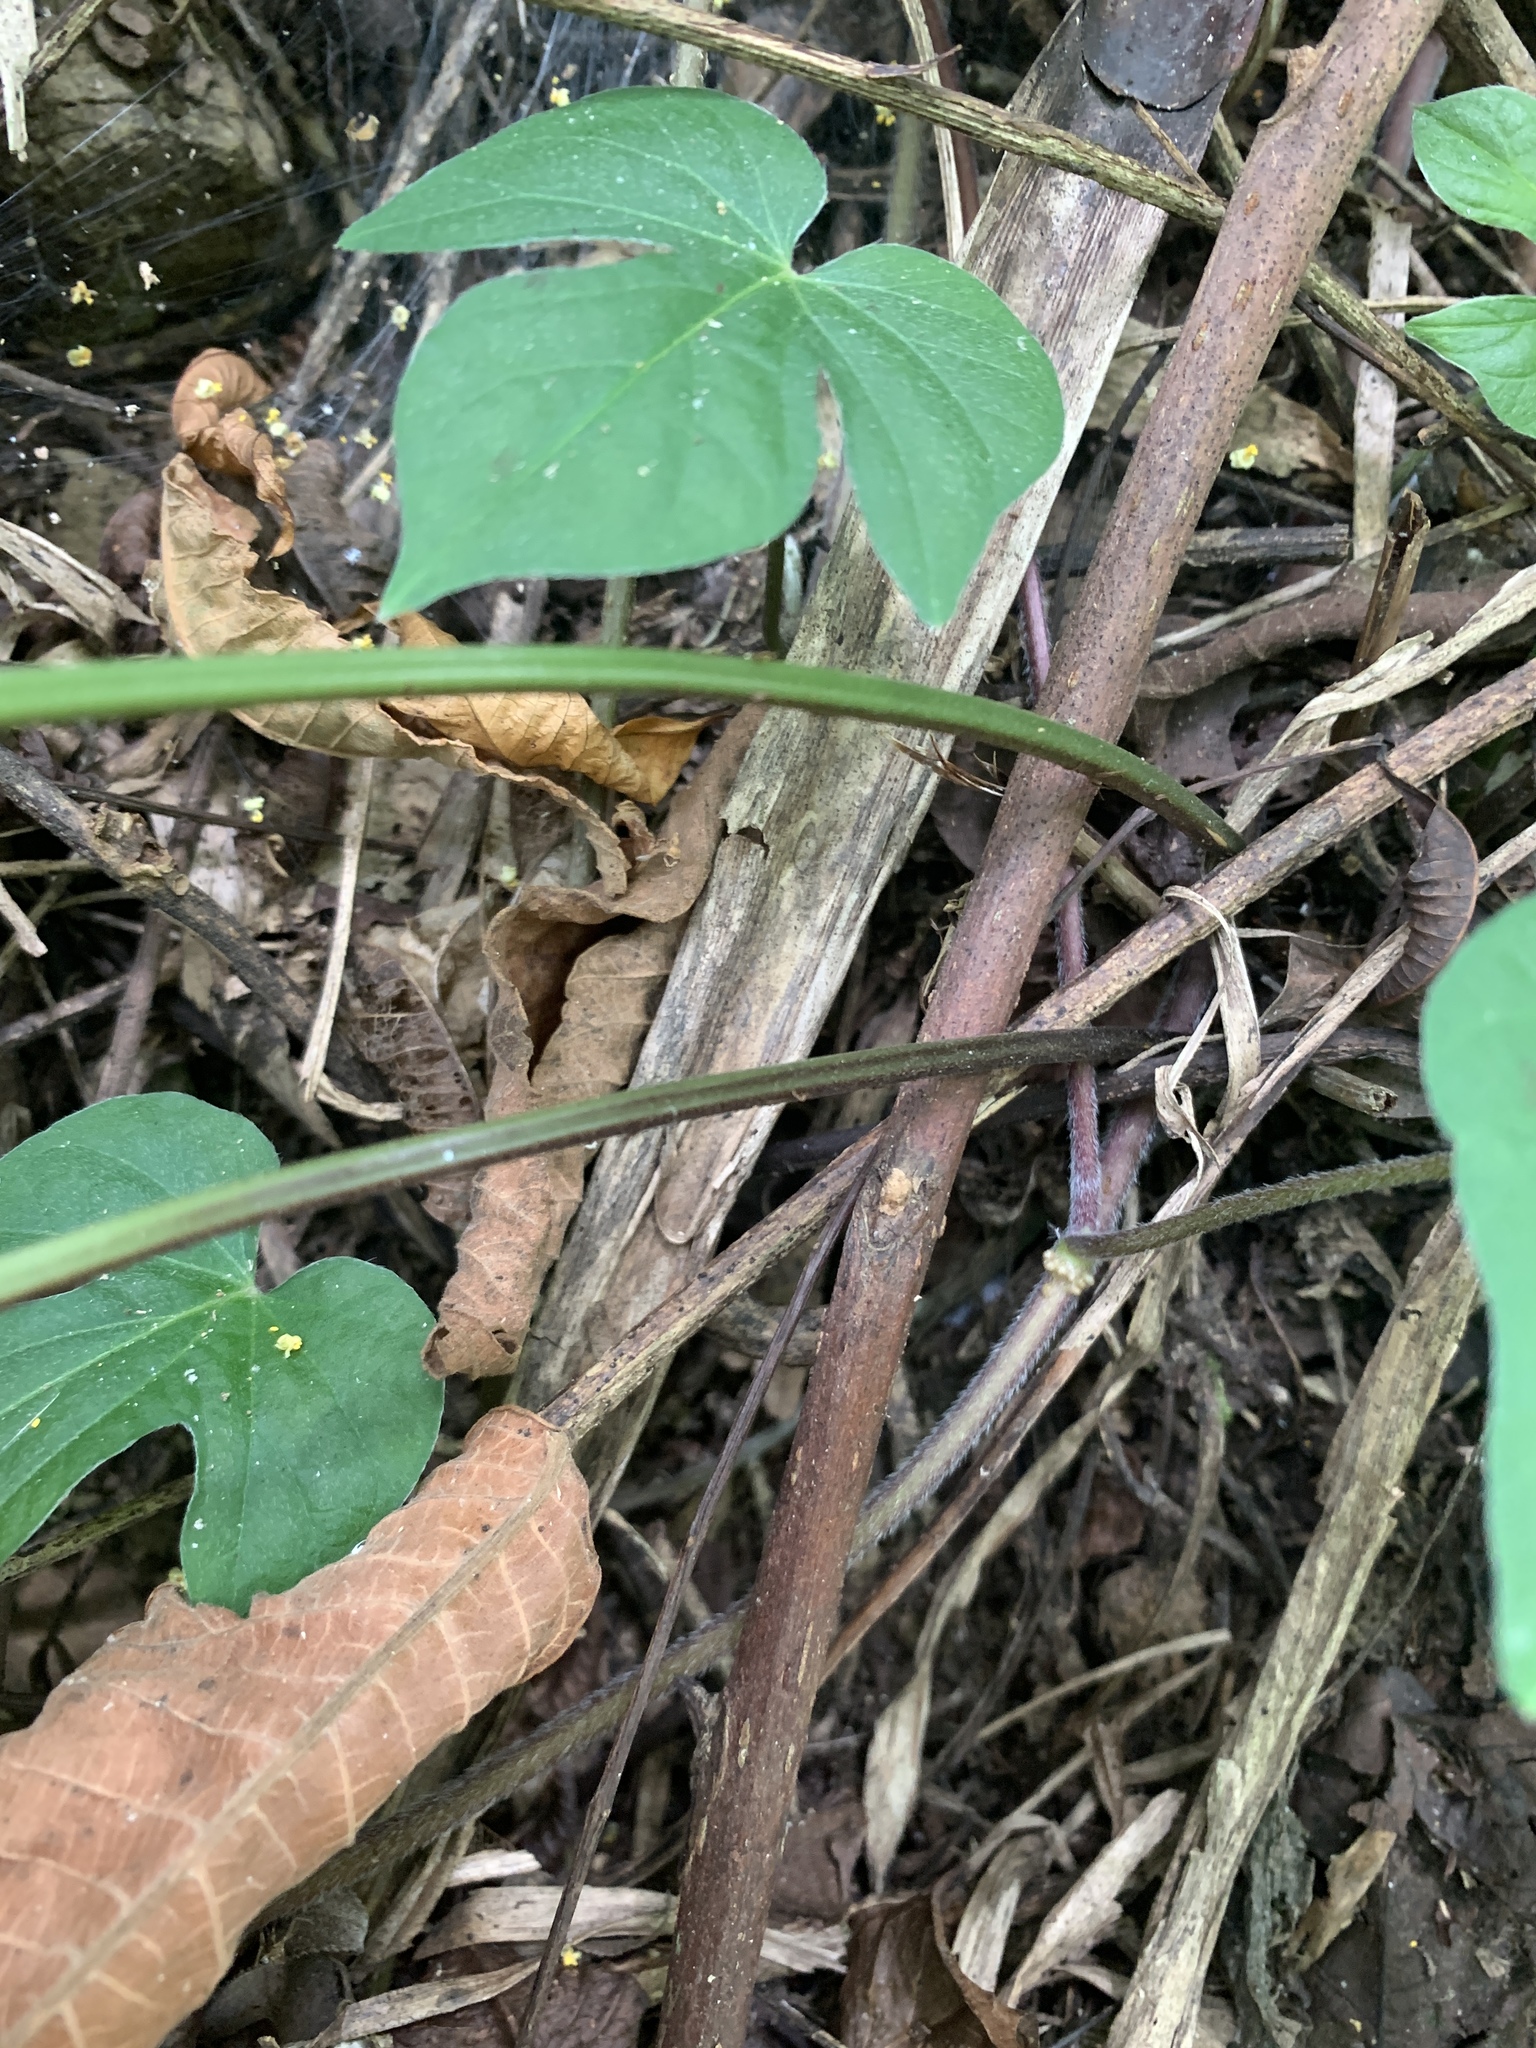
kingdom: Plantae
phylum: Tracheophyta
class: Polypodiopsida
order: Polypodiales
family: Pteridaceae
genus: Pteris
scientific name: Pteris arisanensis
